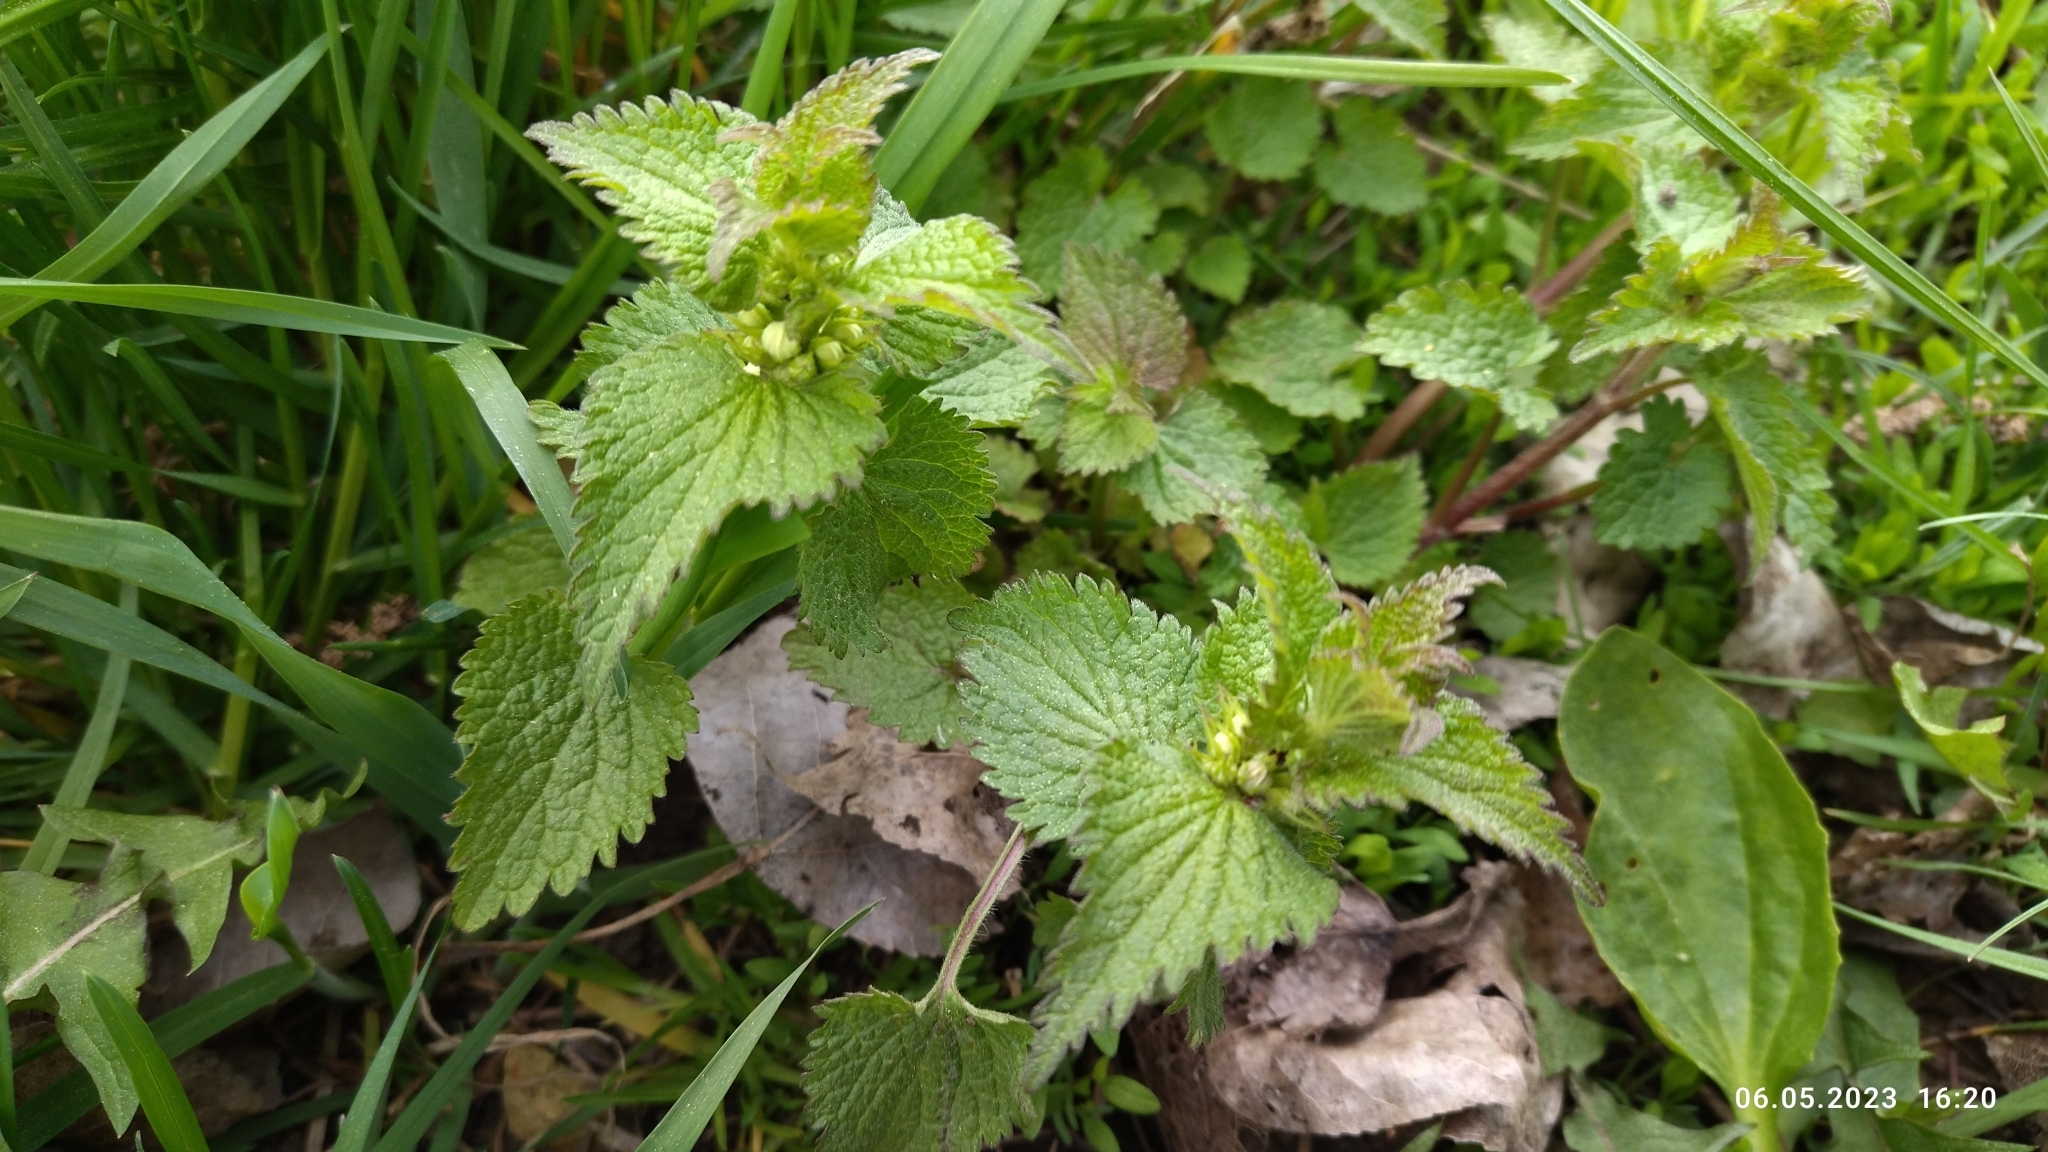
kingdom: Plantae
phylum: Tracheophyta
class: Magnoliopsida
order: Lamiales
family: Lamiaceae
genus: Lamium
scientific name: Lamium album
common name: White dead-nettle
